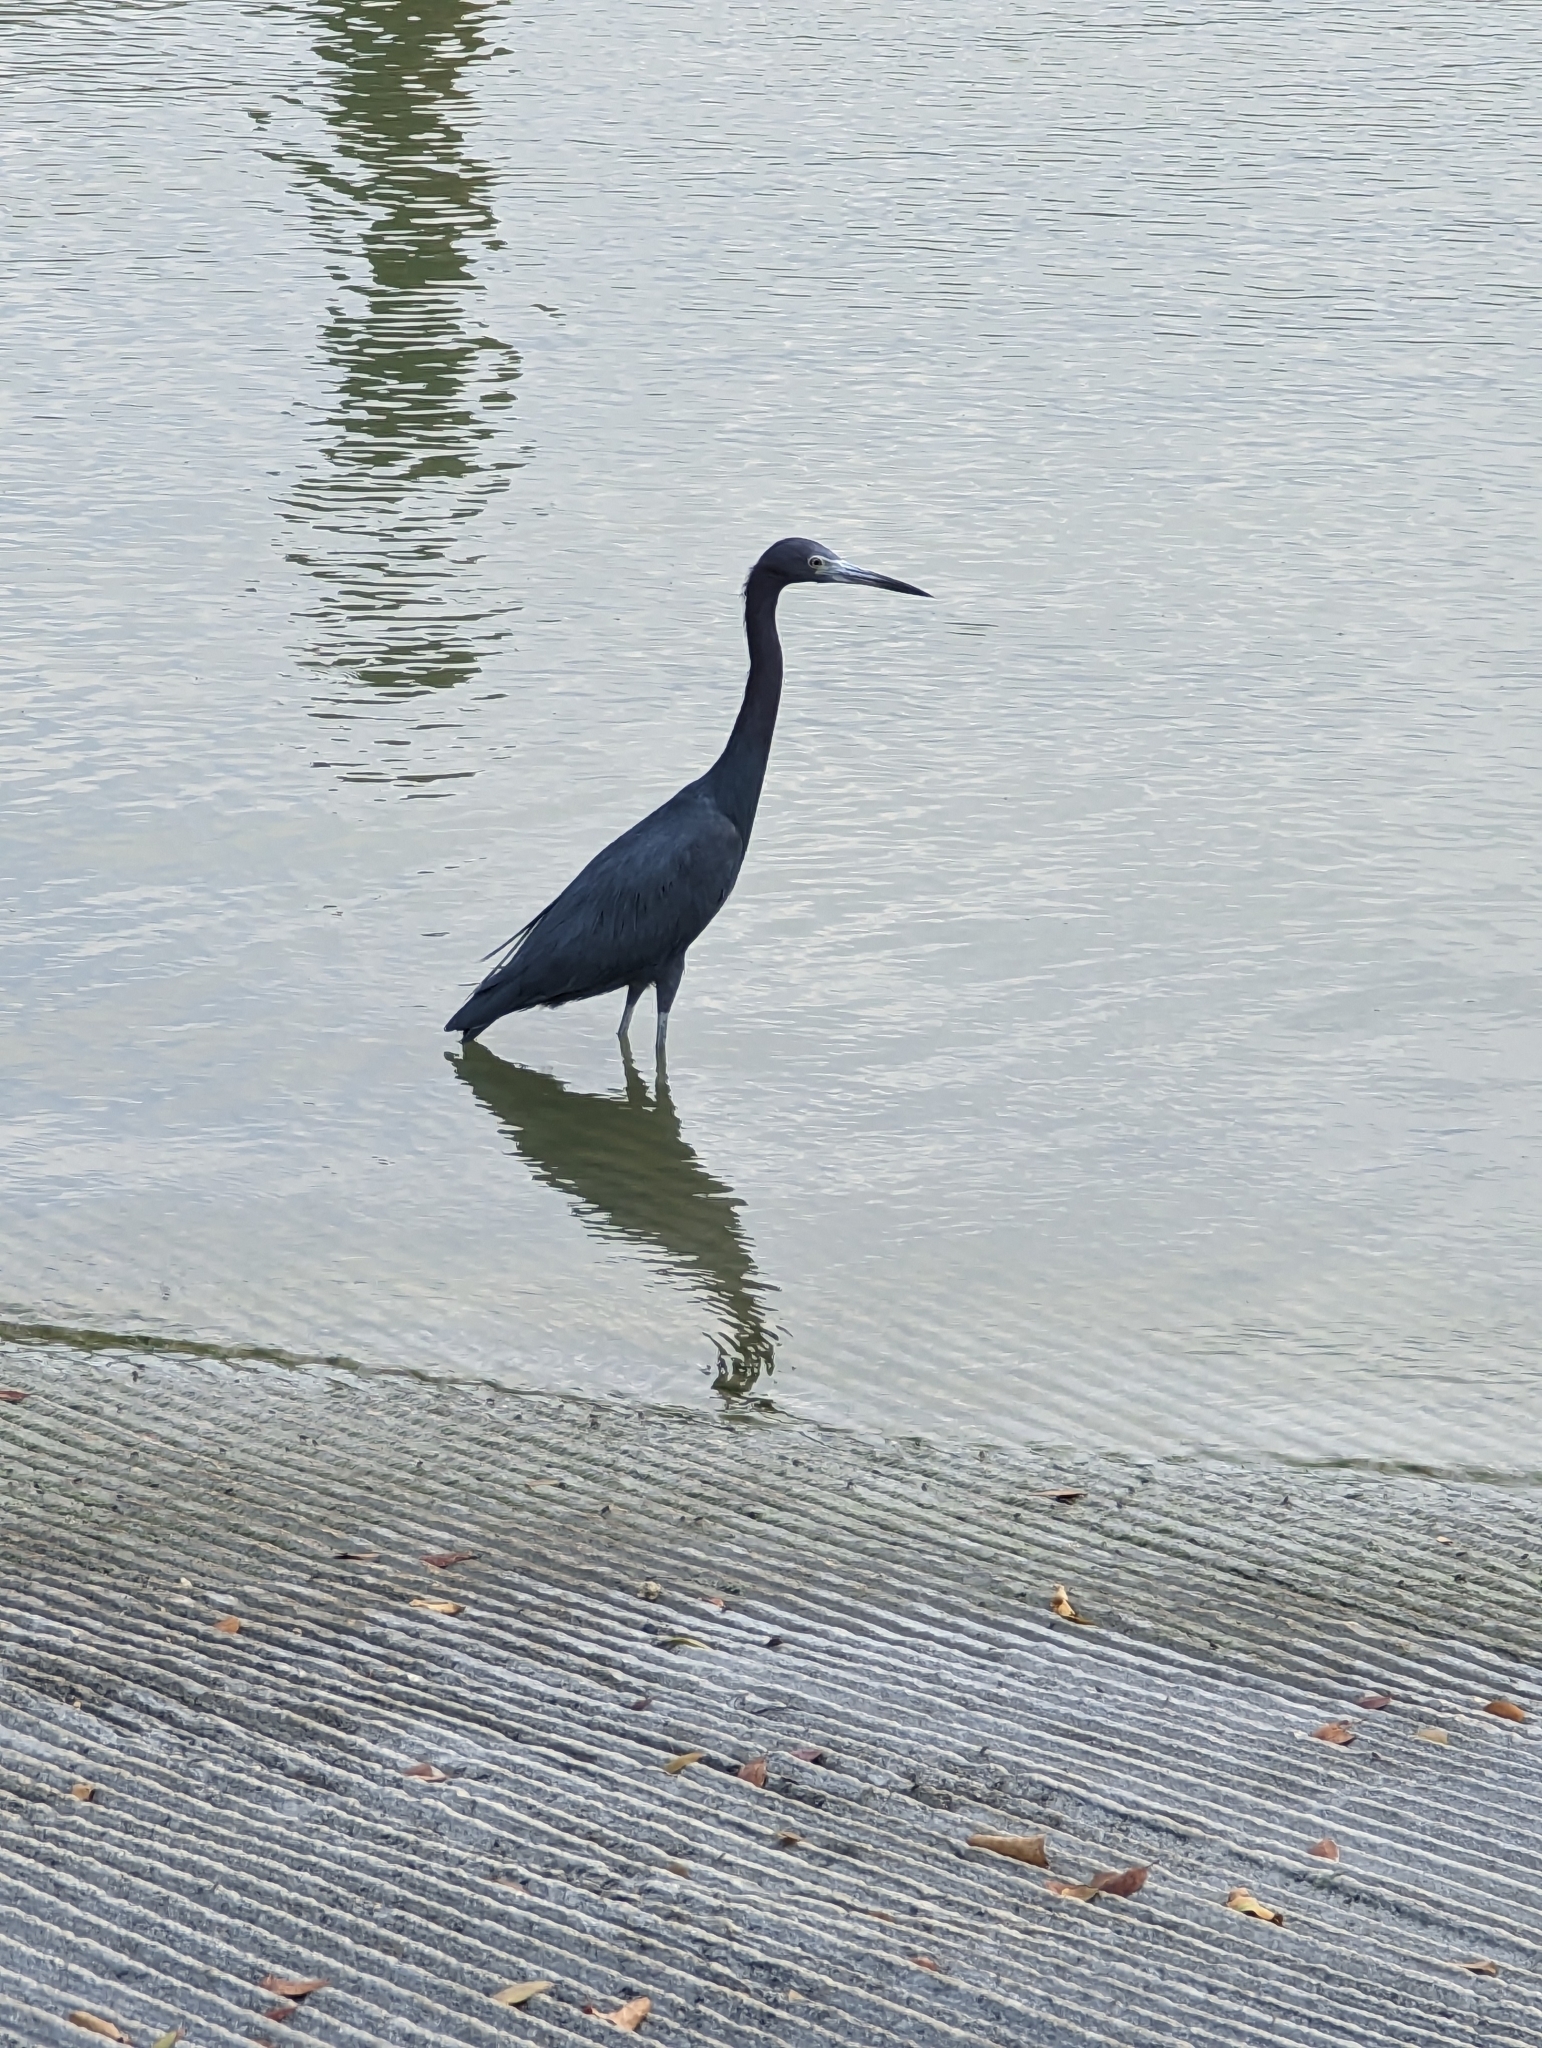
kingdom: Animalia
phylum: Chordata
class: Aves
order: Pelecaniformes
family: Ardeidae
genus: Egretta
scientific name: Egretta caerulea
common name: Little blue heron
